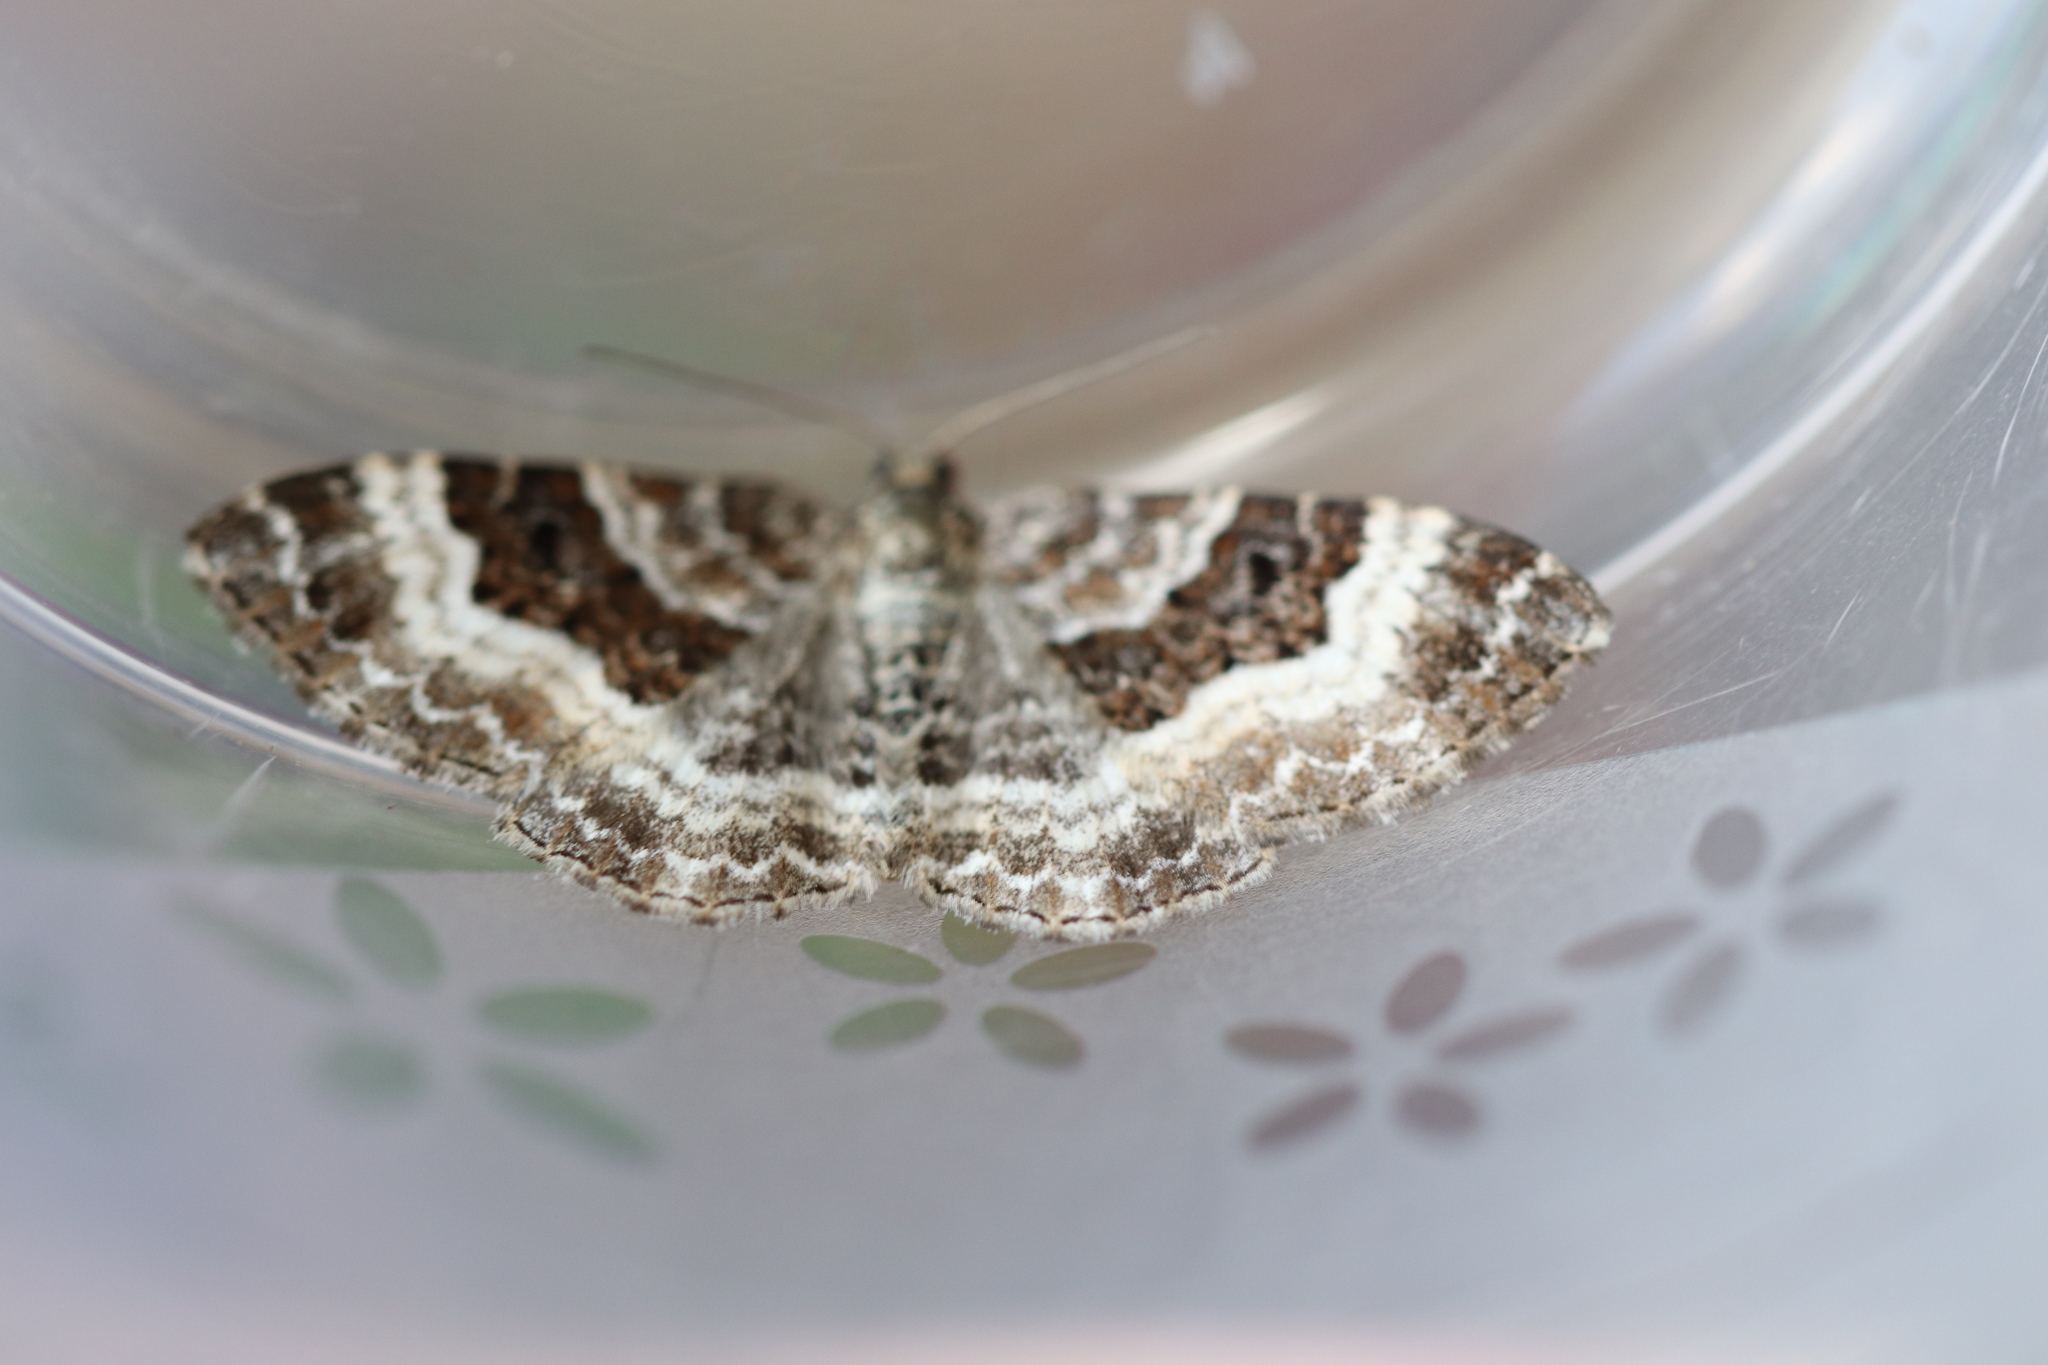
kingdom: Animalia
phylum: Arthropoda
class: Insecta
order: Lepidoptera
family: Geometridae
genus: Epirrhoe
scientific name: Epirrhoe alternata
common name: Common carpet
